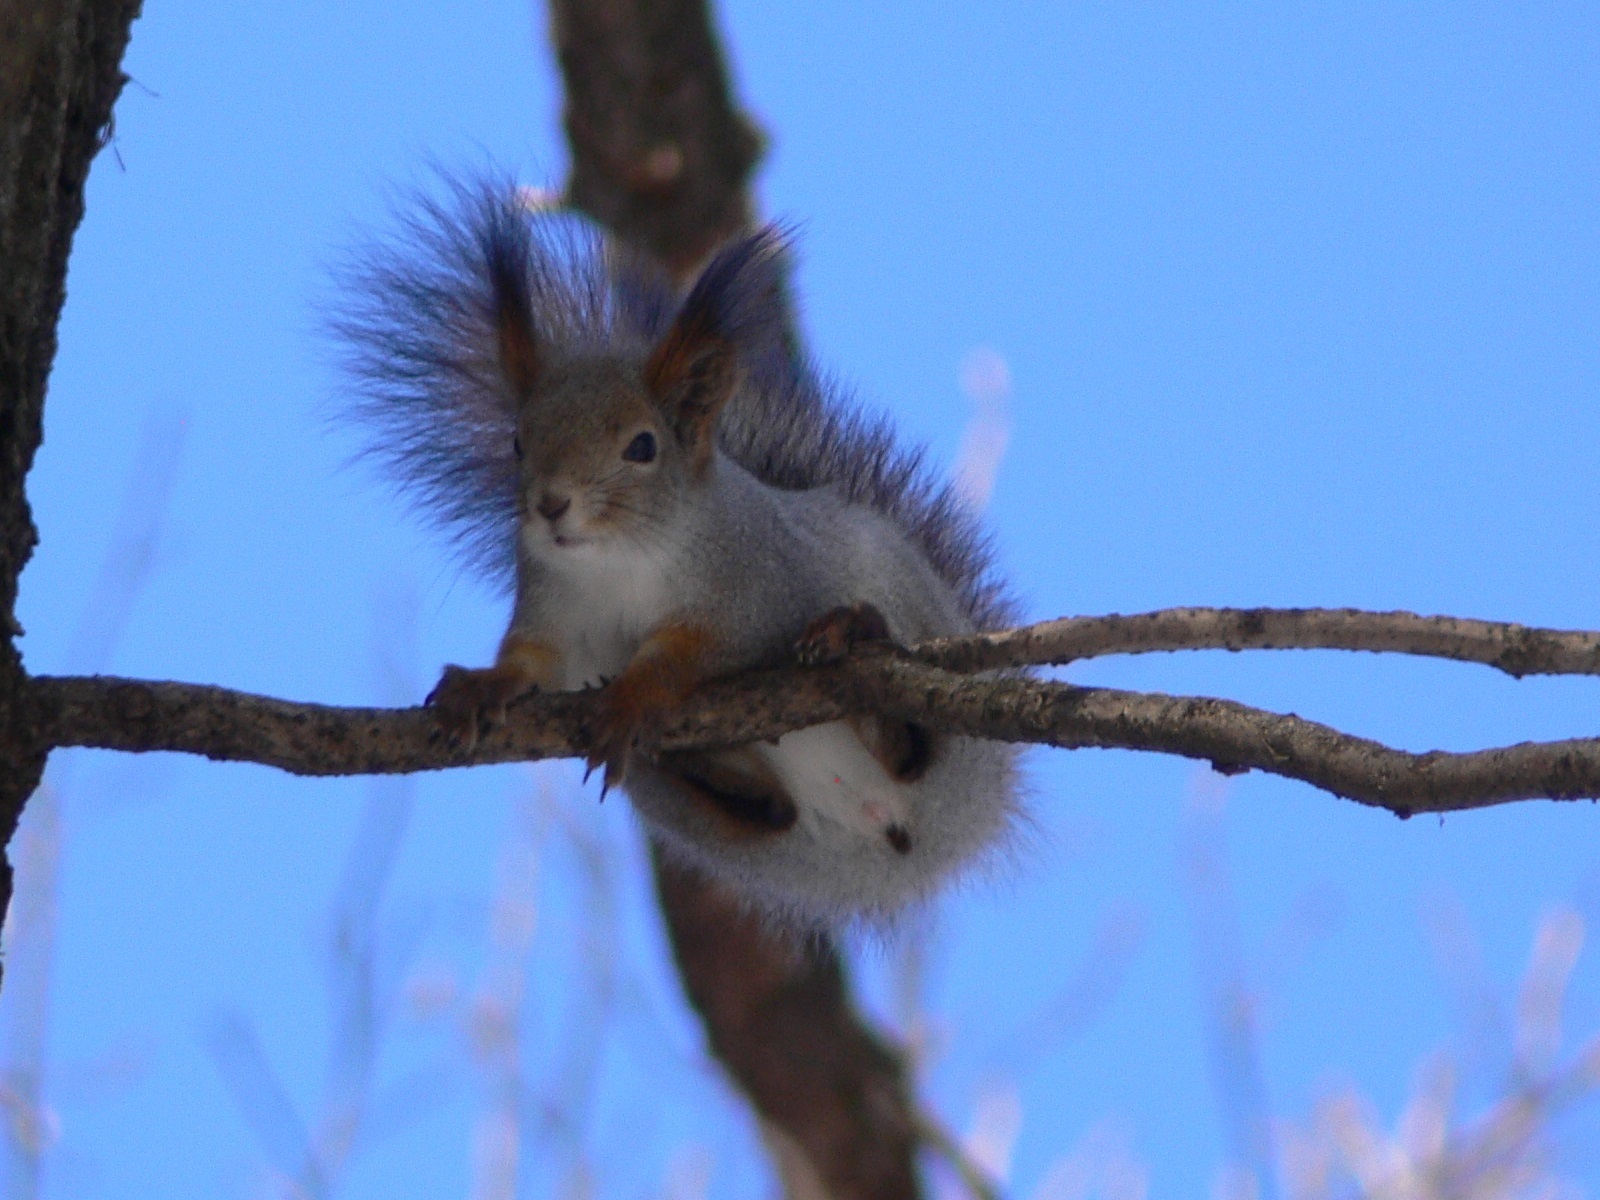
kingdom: Animalia
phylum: Chordata
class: Mammalia
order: Rodentia
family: Sciuridae
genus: Sciurus
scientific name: Sciurus vulgaris
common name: Eurasian red squirrel
